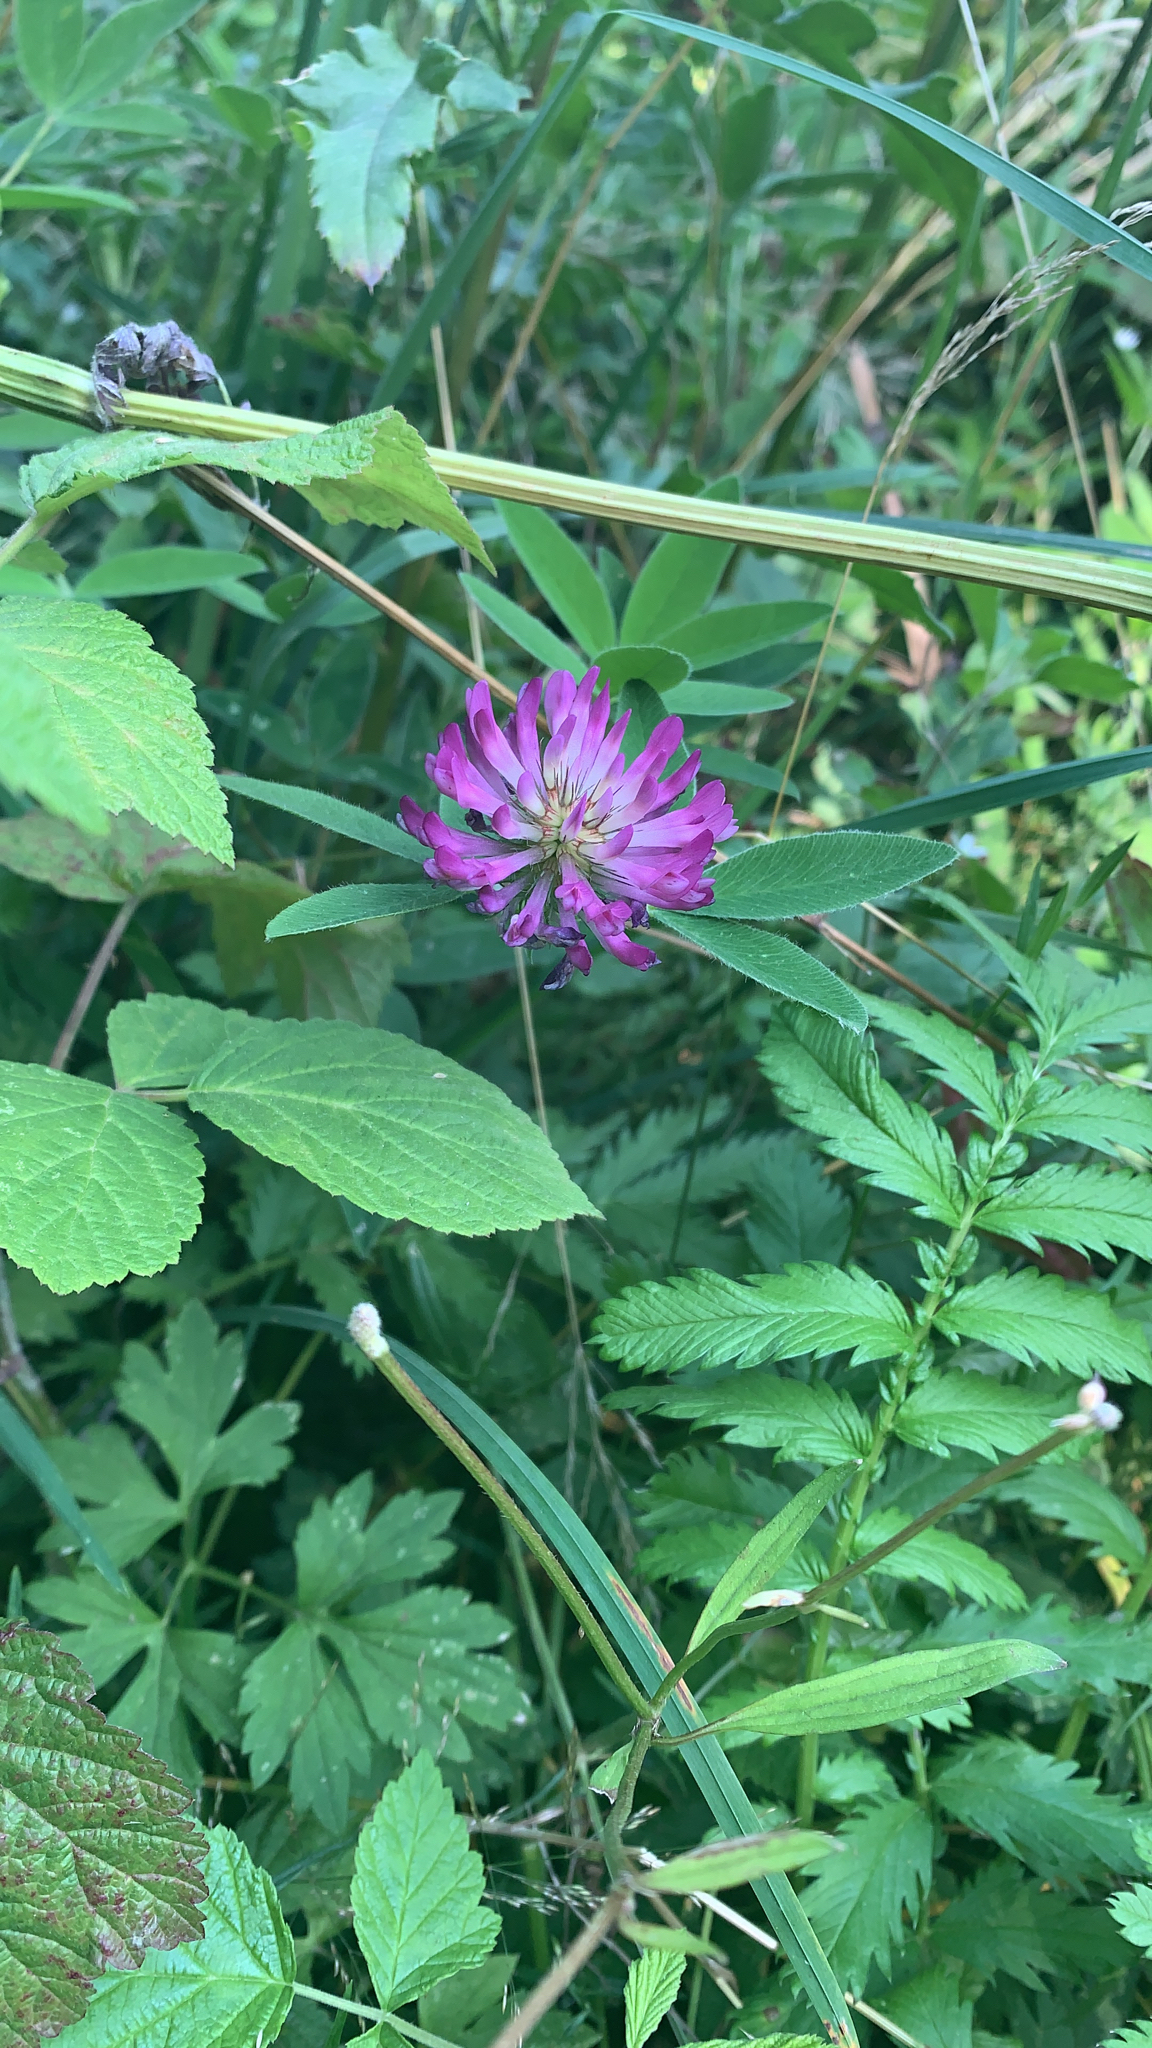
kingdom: Plantae
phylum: Tracheophyta
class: Magnoliopsida
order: Fabales
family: Fabaceae
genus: Trifolium
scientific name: Trifolium medium
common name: Zigzag clover
